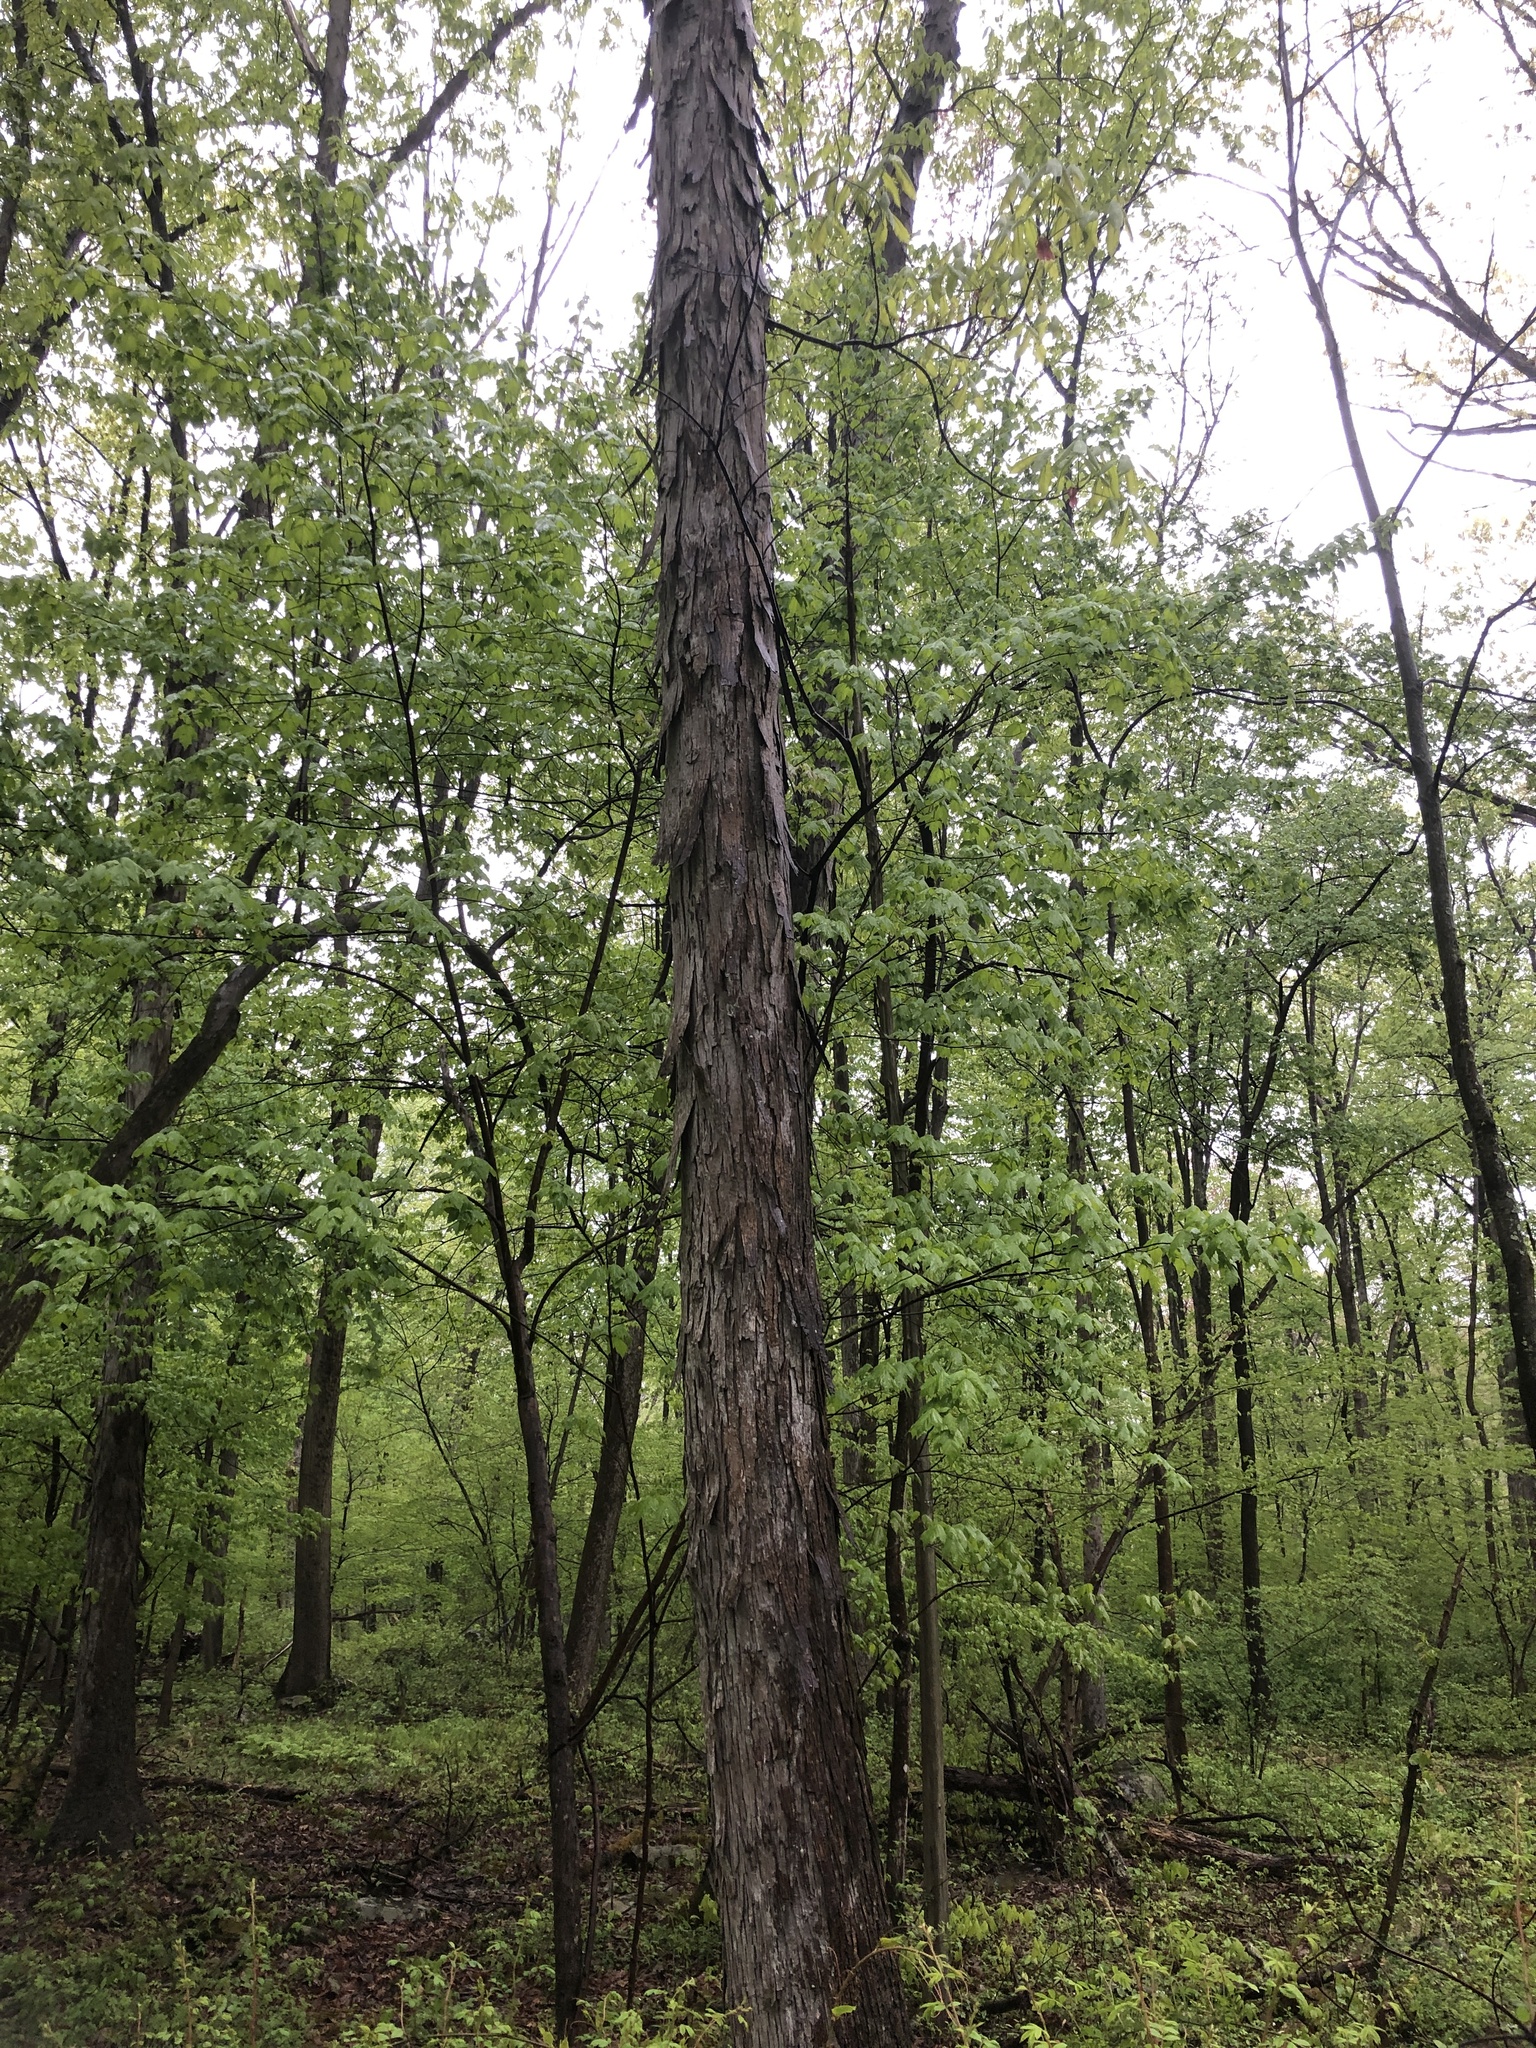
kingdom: Plantae
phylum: Tracheophyta
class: Magnoliopsida
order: Fagales
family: Juglandaceae
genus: Carya
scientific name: Carya ovata
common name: Shagbark hickory
